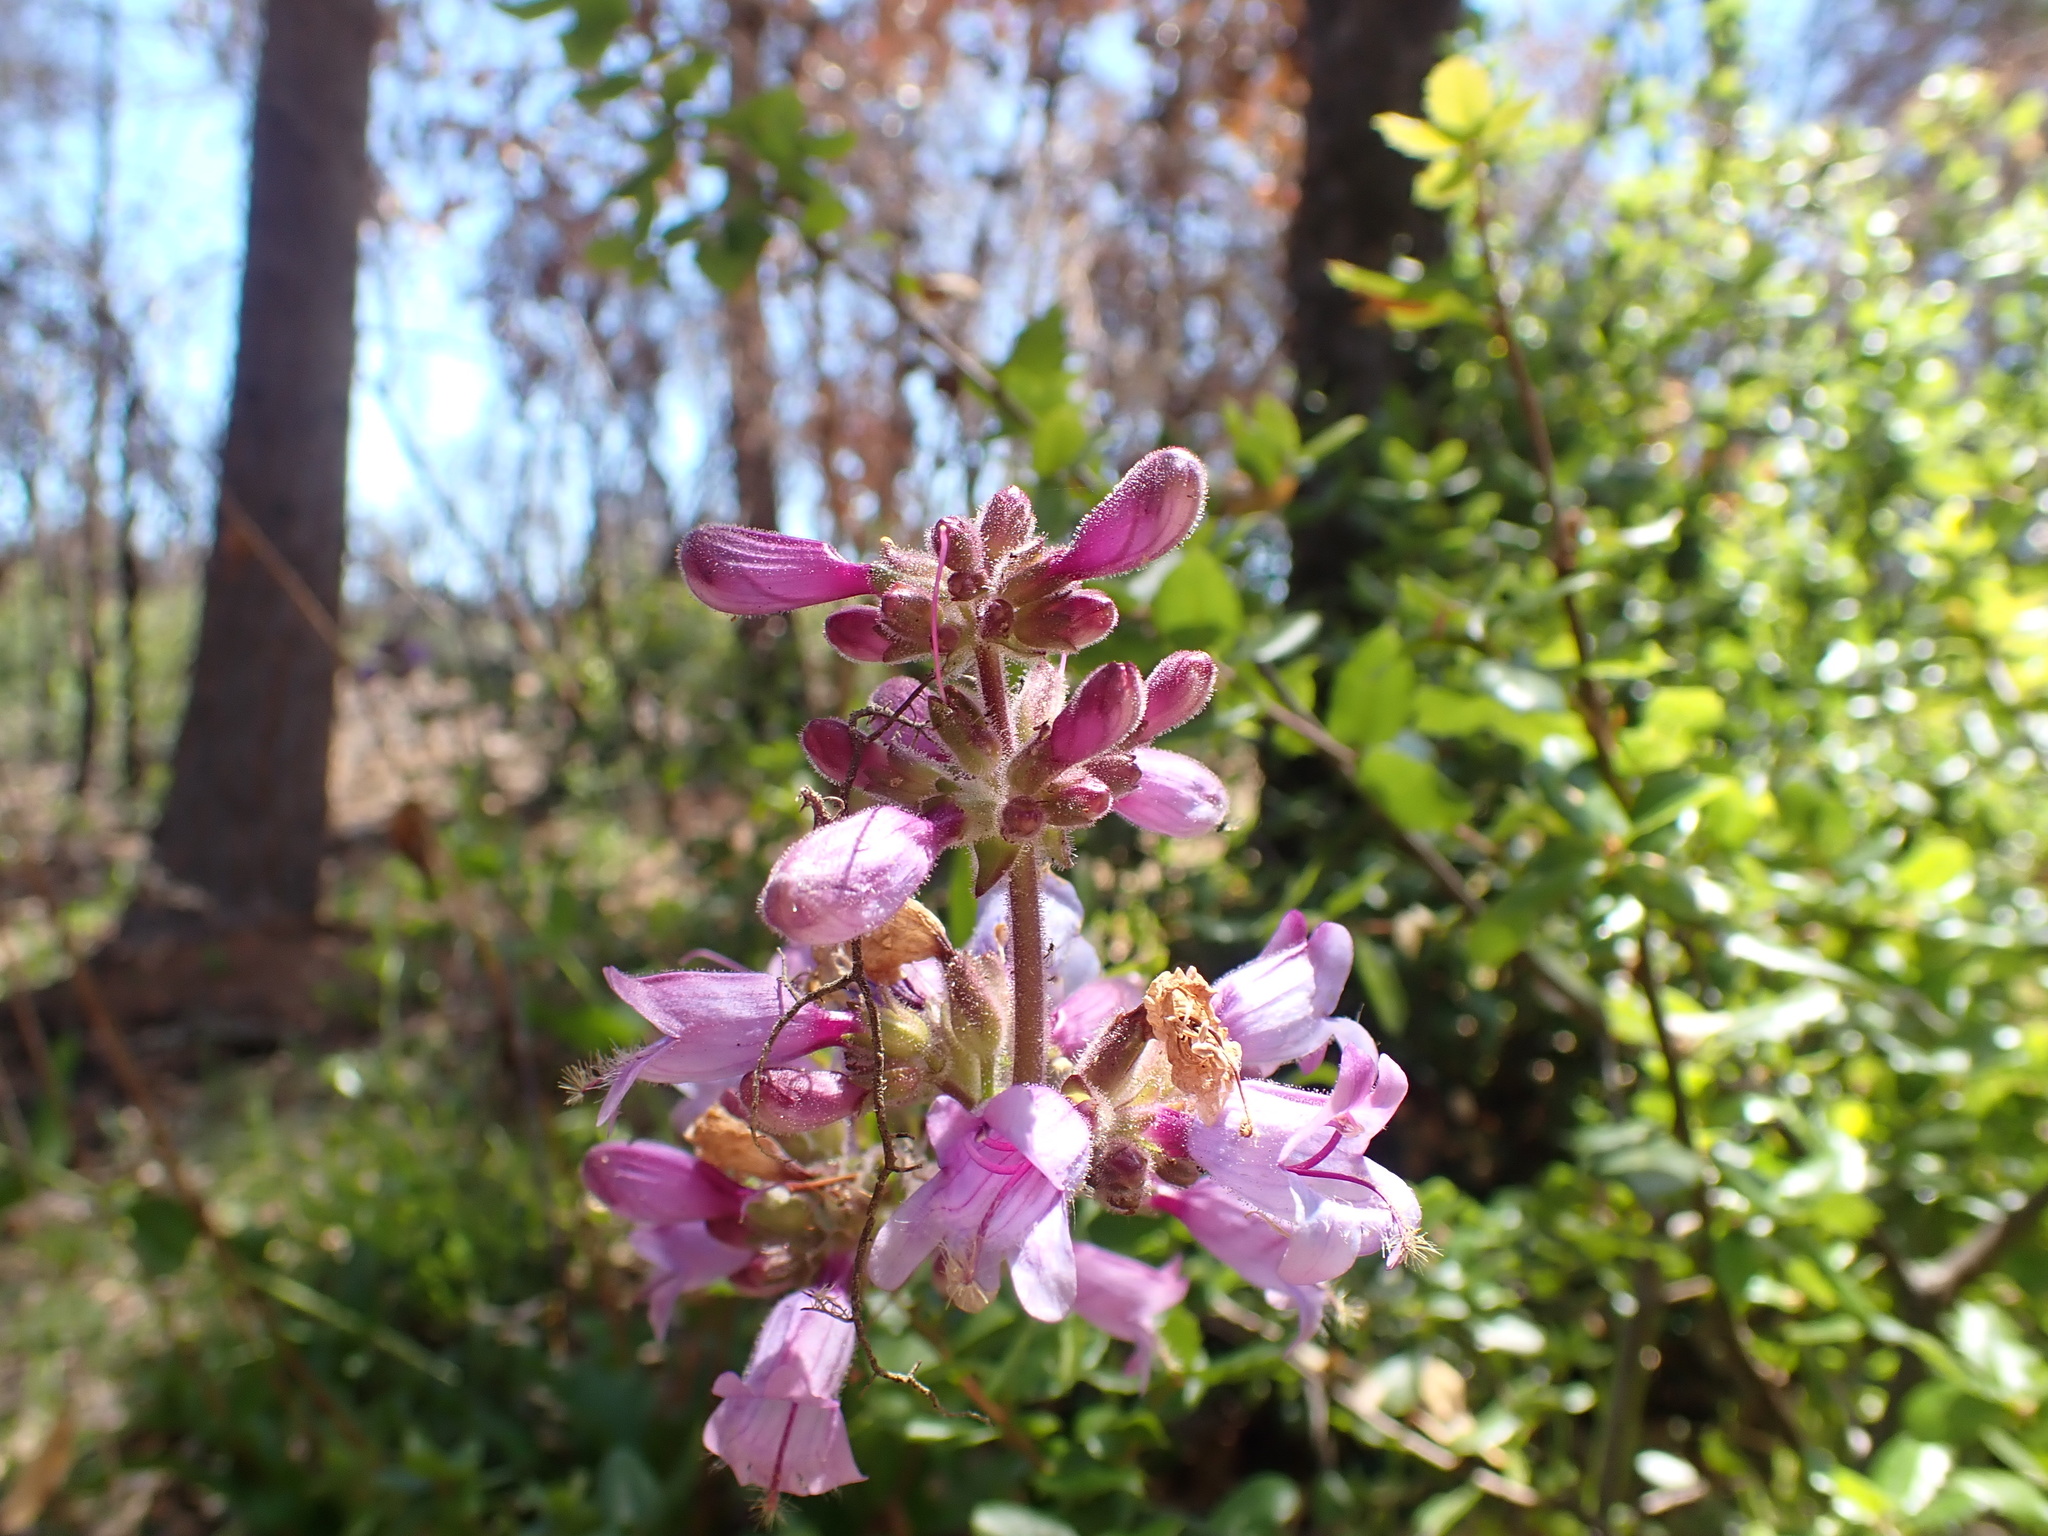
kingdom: Plantae
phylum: Tracheophyta
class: Magnoliopsida
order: Lamiales
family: Plantaginaceae
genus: Penstemon
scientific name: Penstemon rattanii
